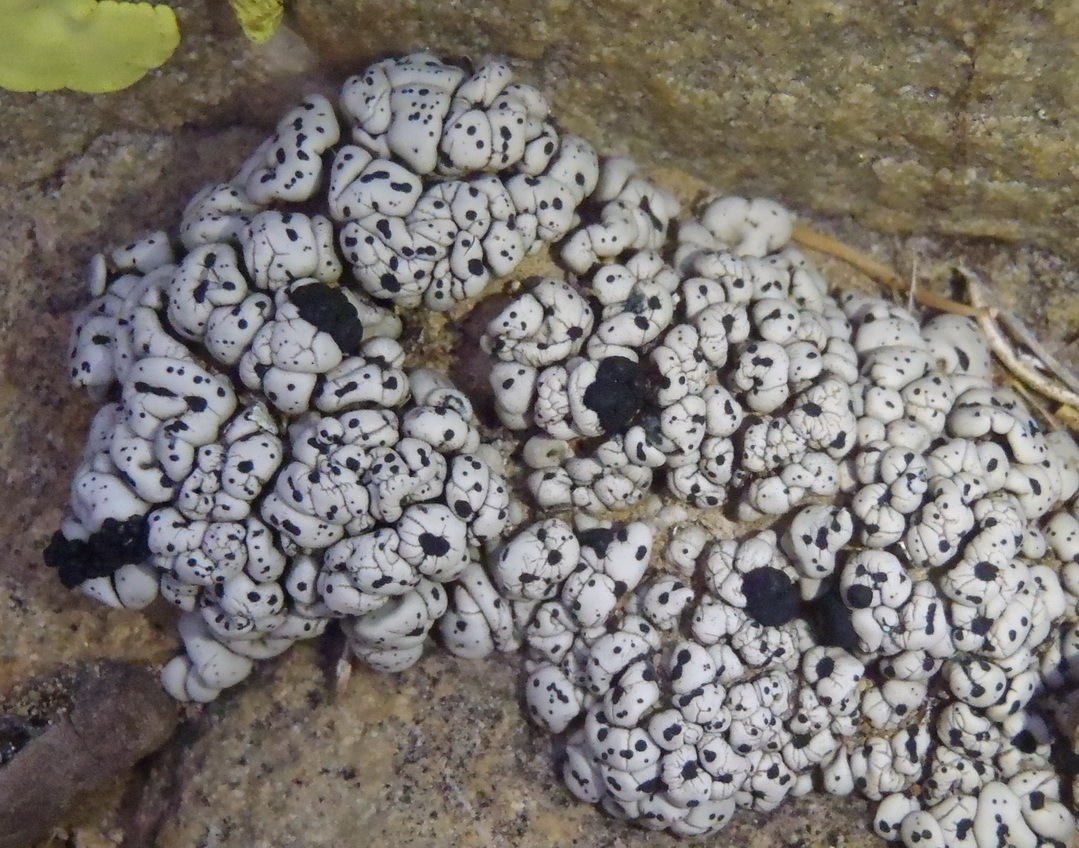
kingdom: Fungi
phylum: Ascomycota
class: Lecanoromycetes
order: Lecanorales
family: Ramalinaceae
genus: Rolfidium
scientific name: Rolfidium bumammum
